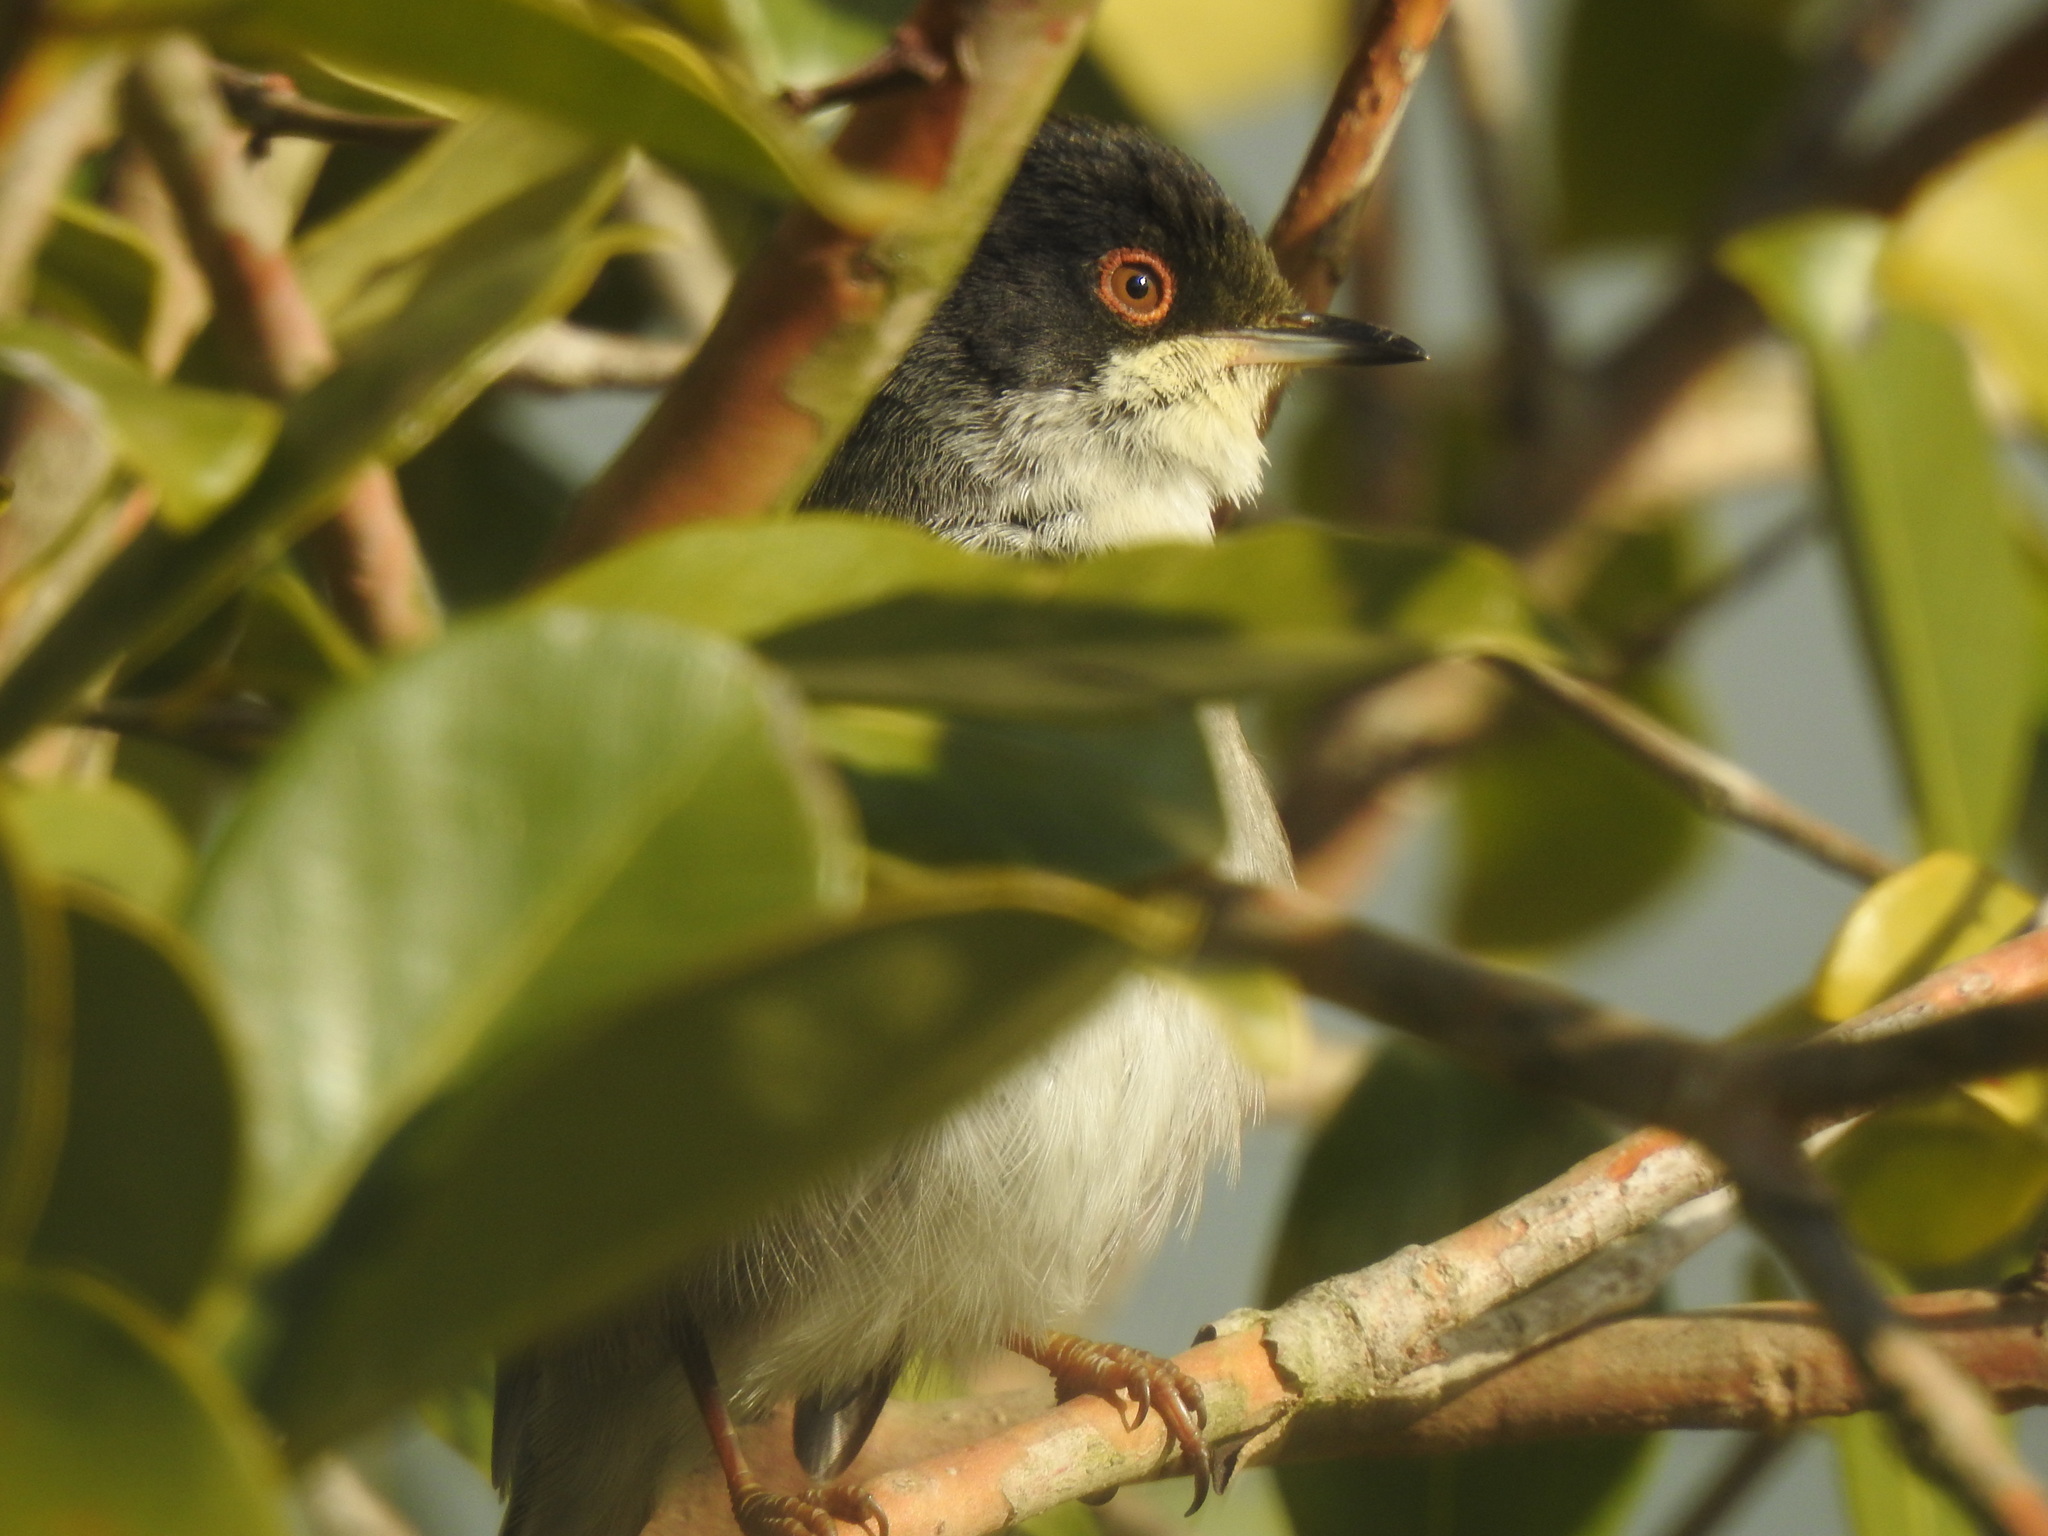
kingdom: Animalia
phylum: Chordata
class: Aves
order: Passeriformes
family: Sylviidae
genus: Curruca
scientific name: Curruca melanocephala
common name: Sardinian warbler
